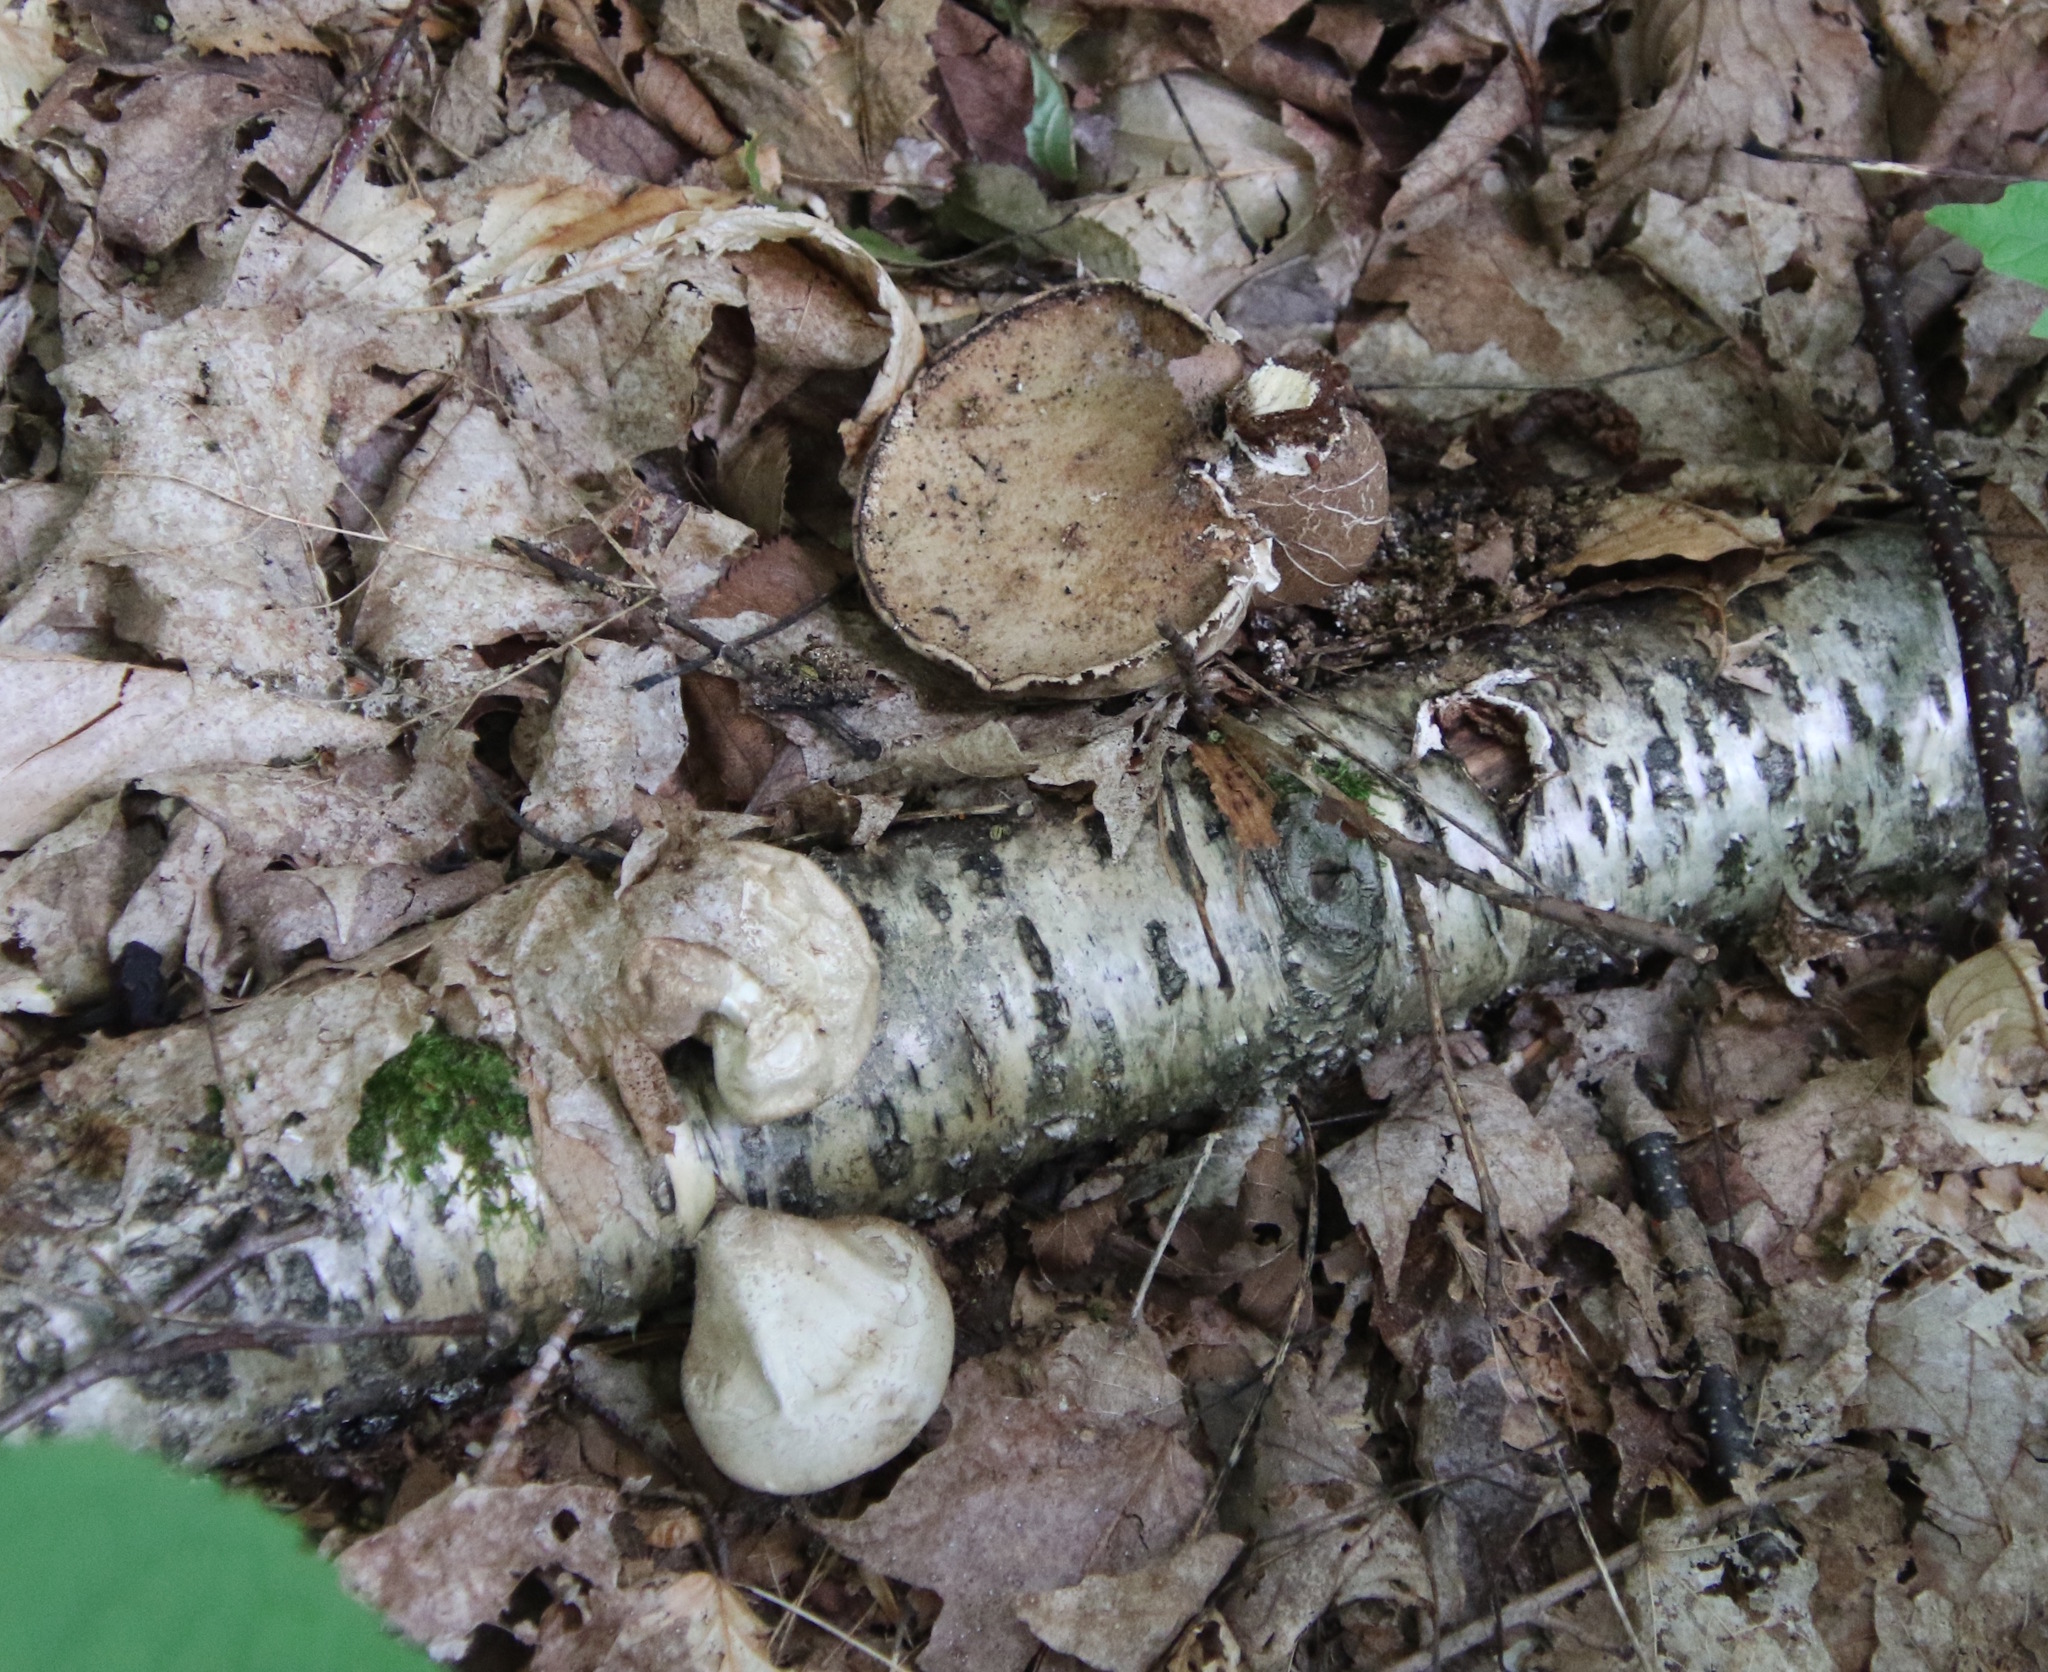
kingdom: Fungi
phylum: Basidiomycota
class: Agaricomycetes
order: Polyporales
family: Fomitopsidaceae
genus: Fomitopsis
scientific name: Fomitopsis betulina
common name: Birch polypore
